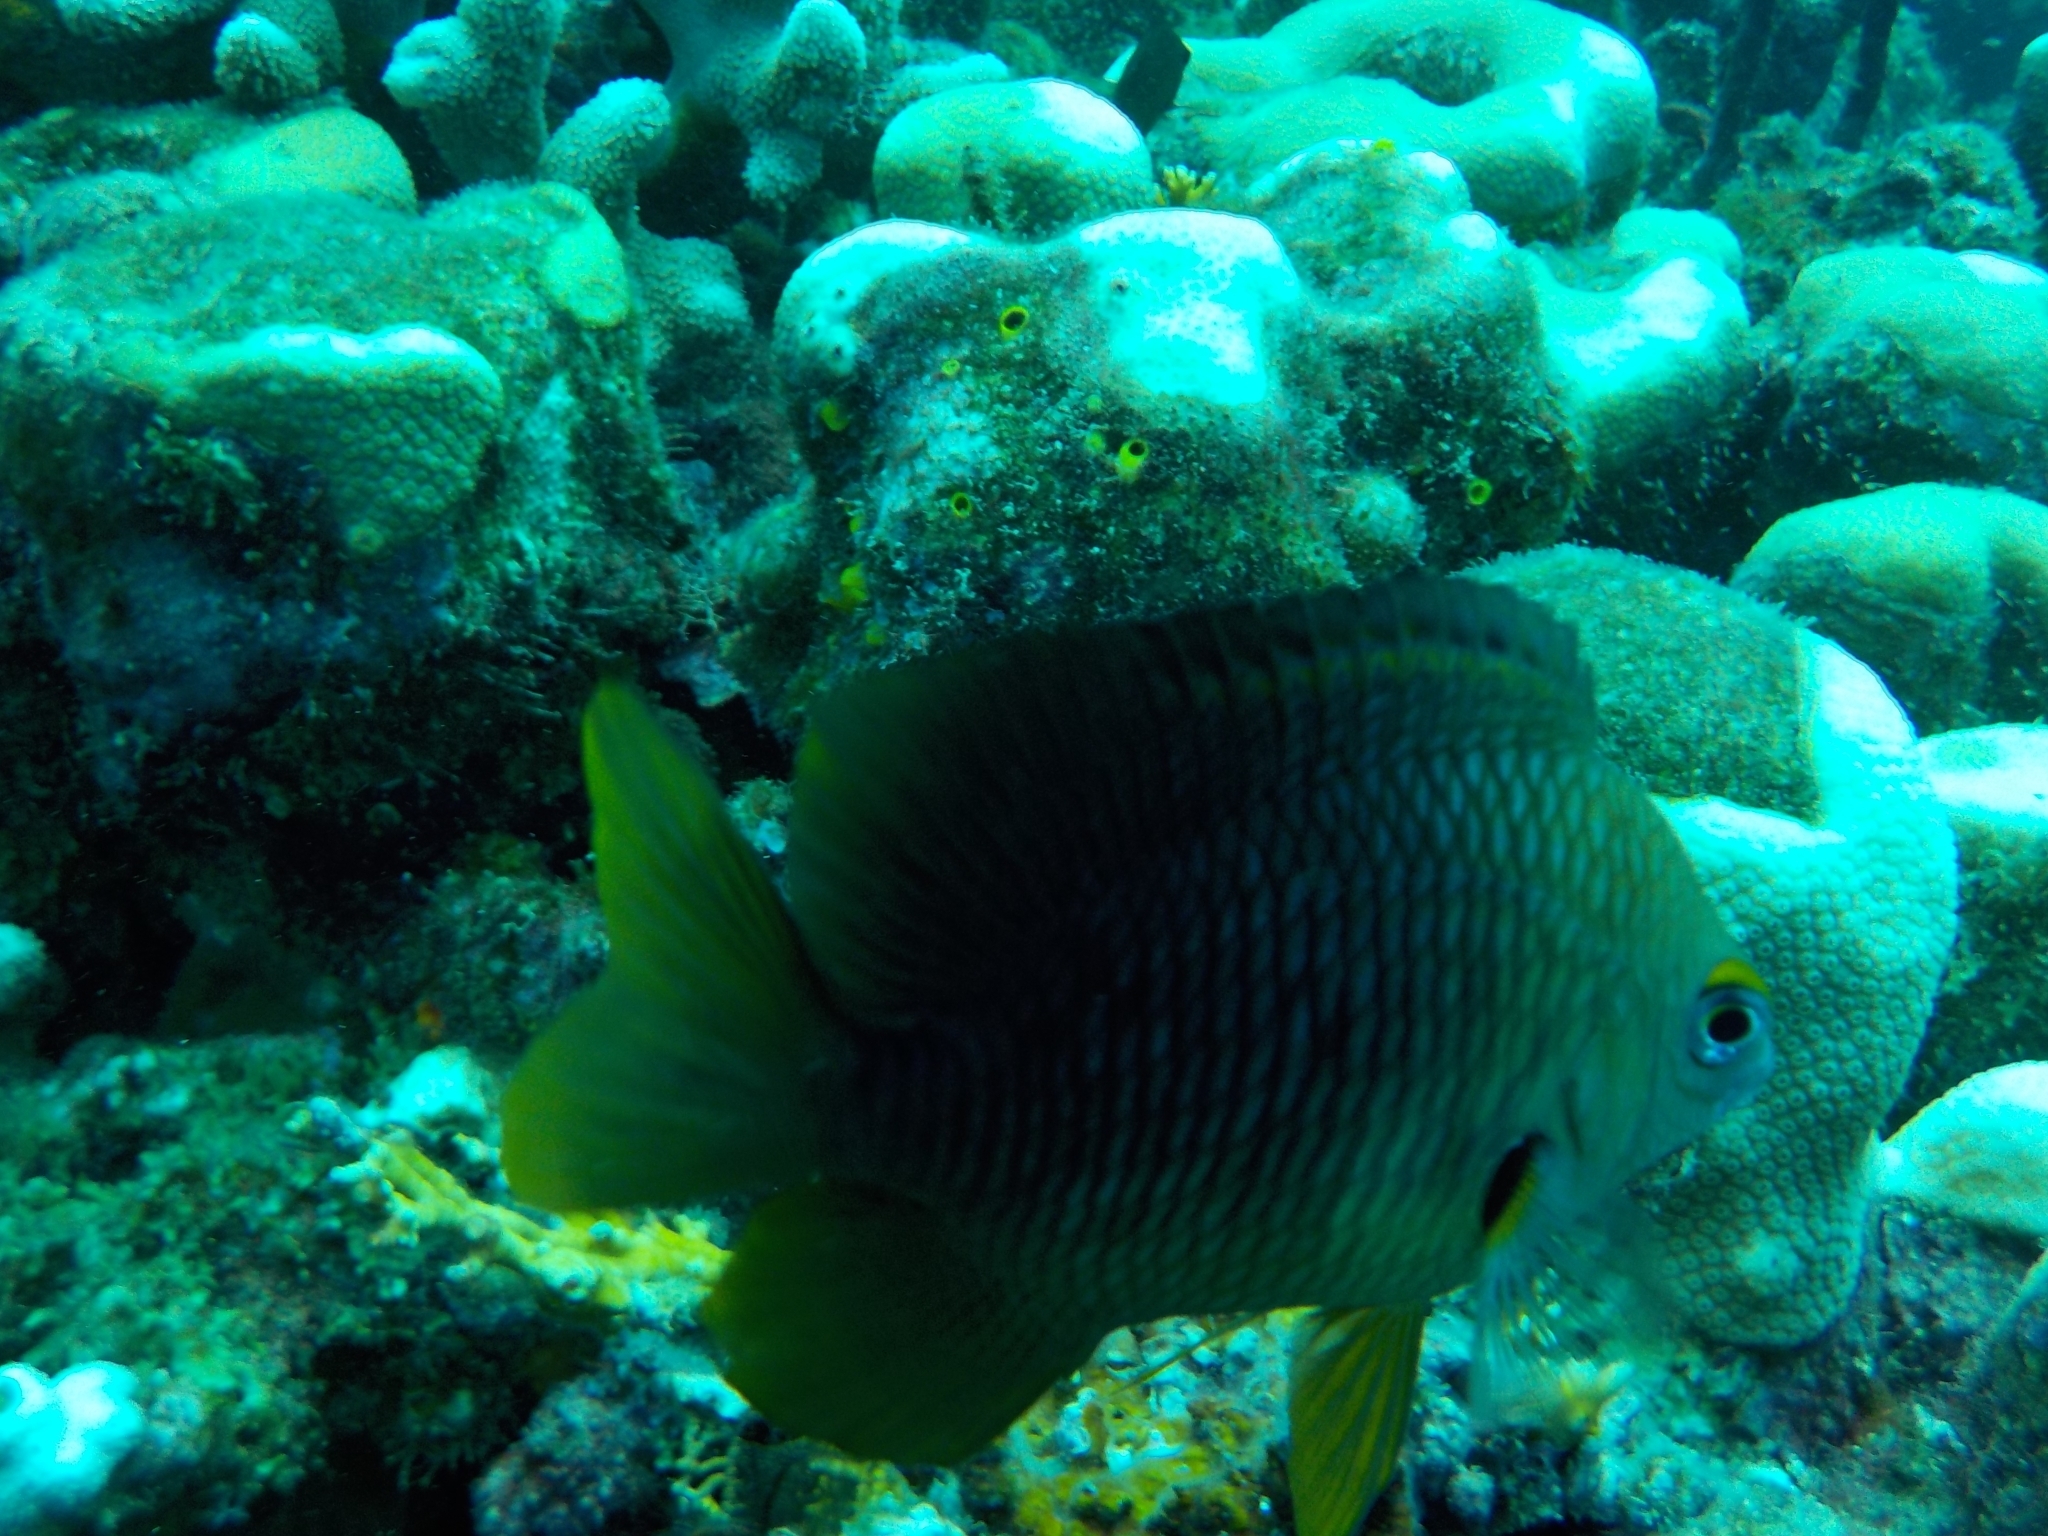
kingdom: Animalia
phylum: Chordata
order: Perciformes
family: Pomacentridae
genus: Stegastes
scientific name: Stegastes planifrons
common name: Threespot damselfish
